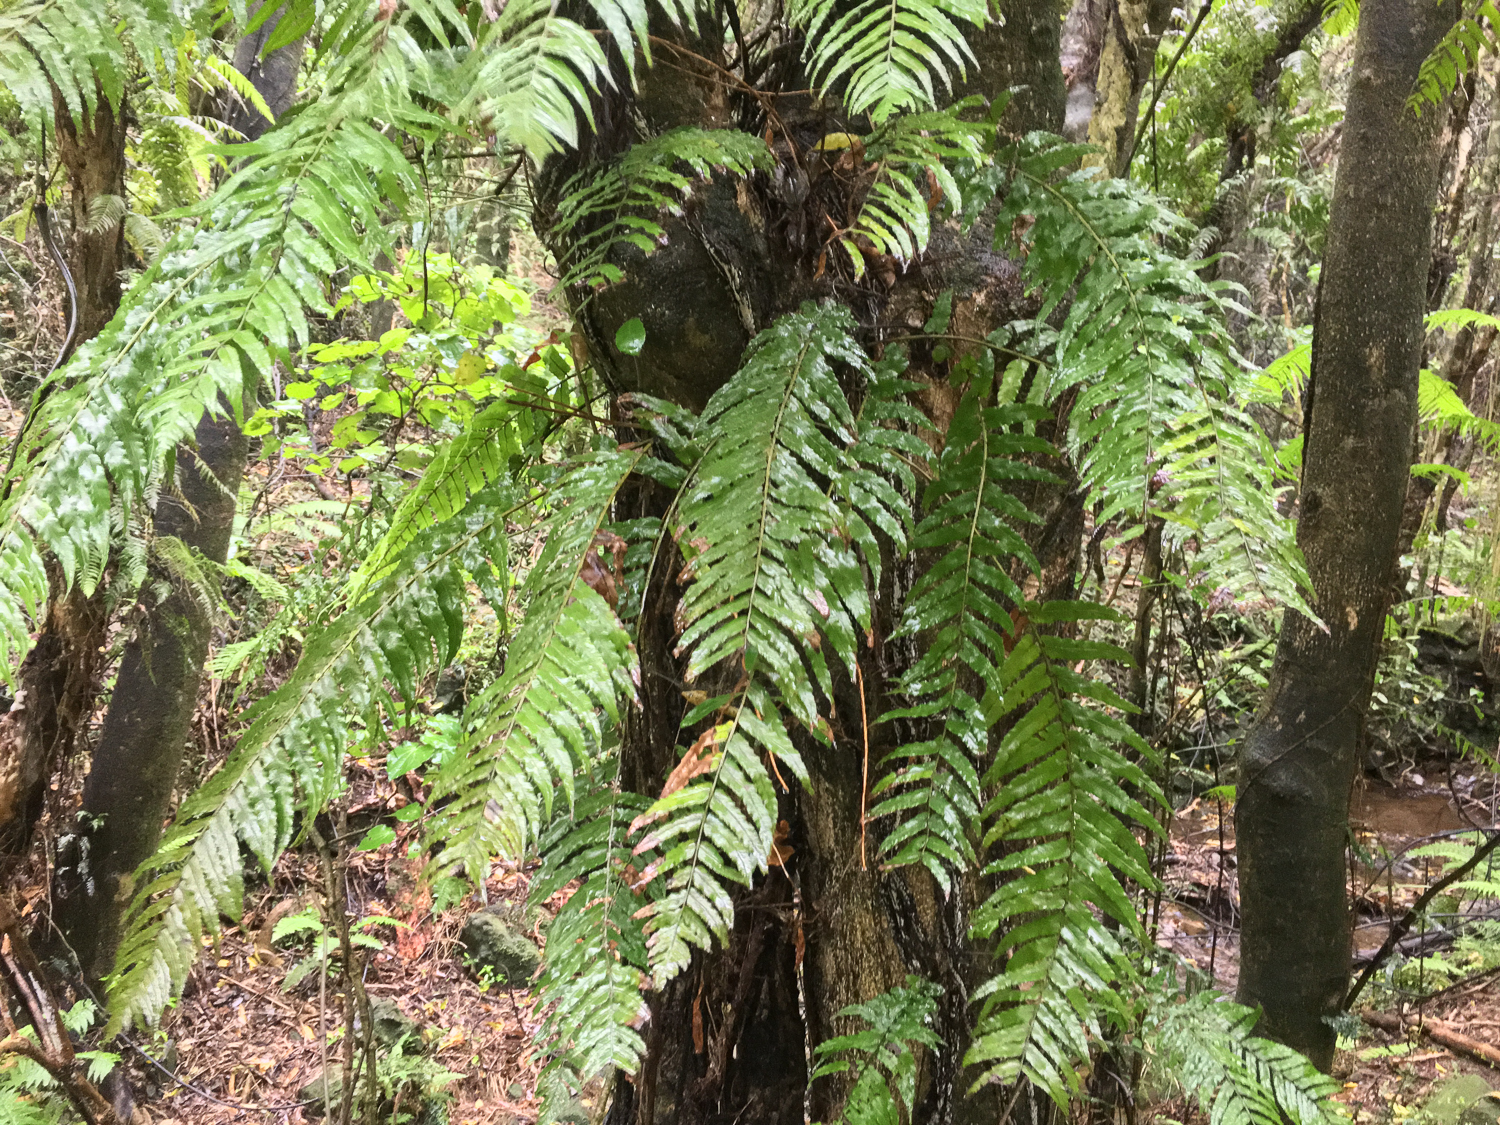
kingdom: Plantae
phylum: Tracheophyta
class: Polypodiopsida
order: Polypodiales
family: Blechnaceae
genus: Icarus
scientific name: Icarus filiformis
